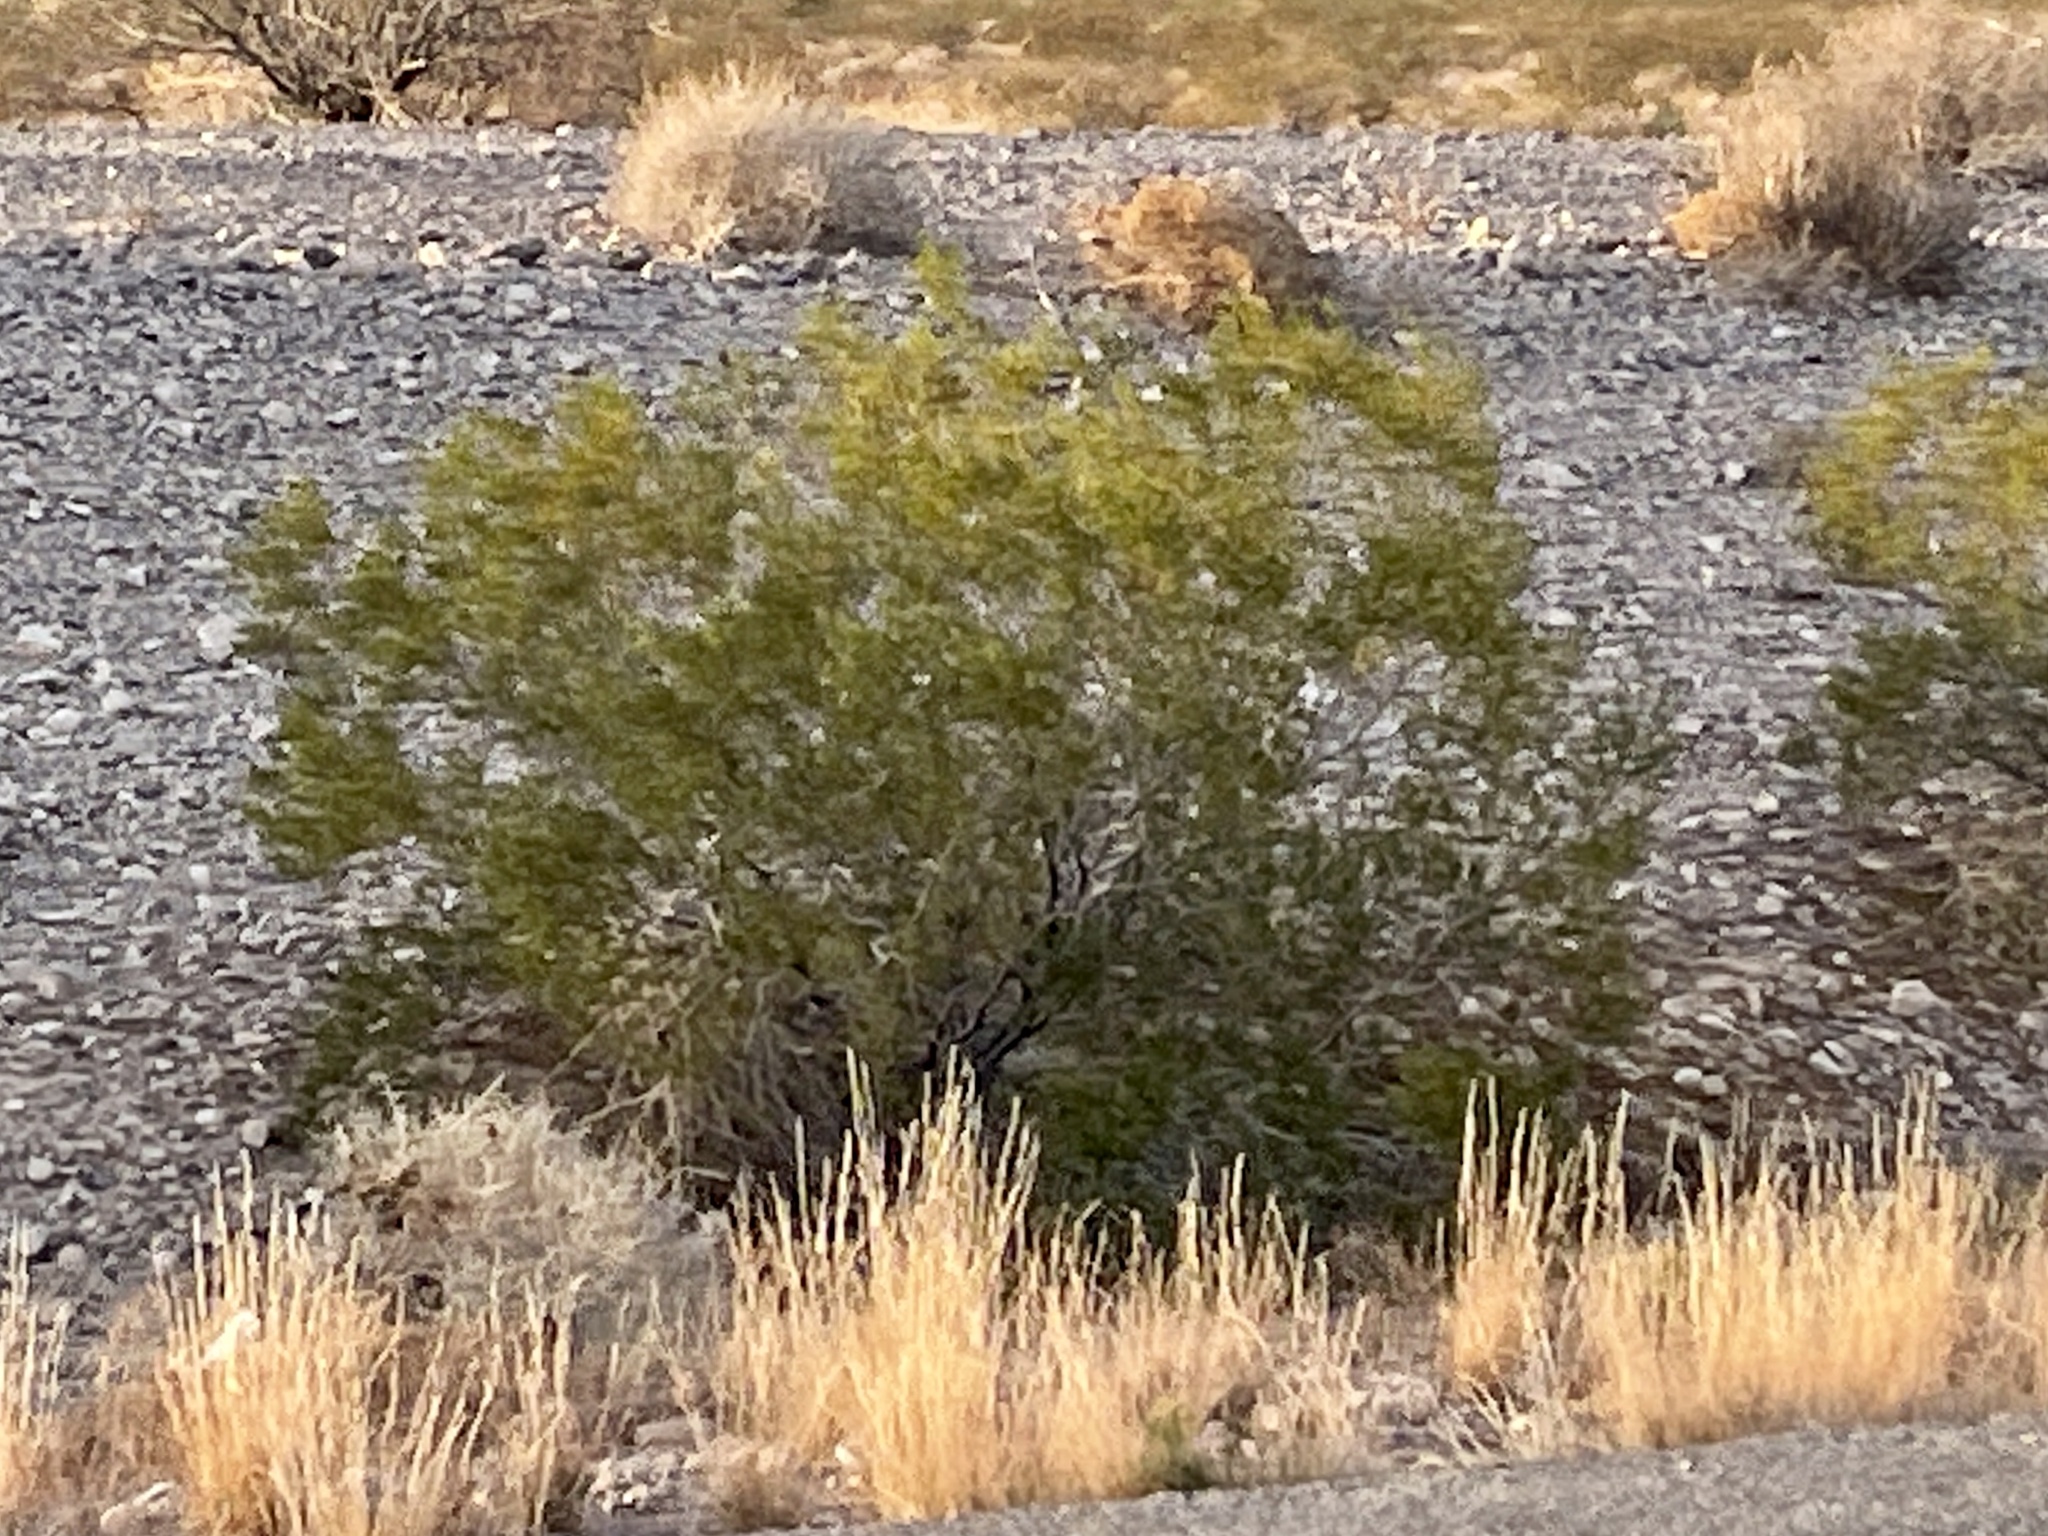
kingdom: Plantae
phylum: Tracheophyta
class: Magnoliopsida
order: Zygophyllales
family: Zygophyllaceae
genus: Larrea
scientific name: Larrea tridentata
